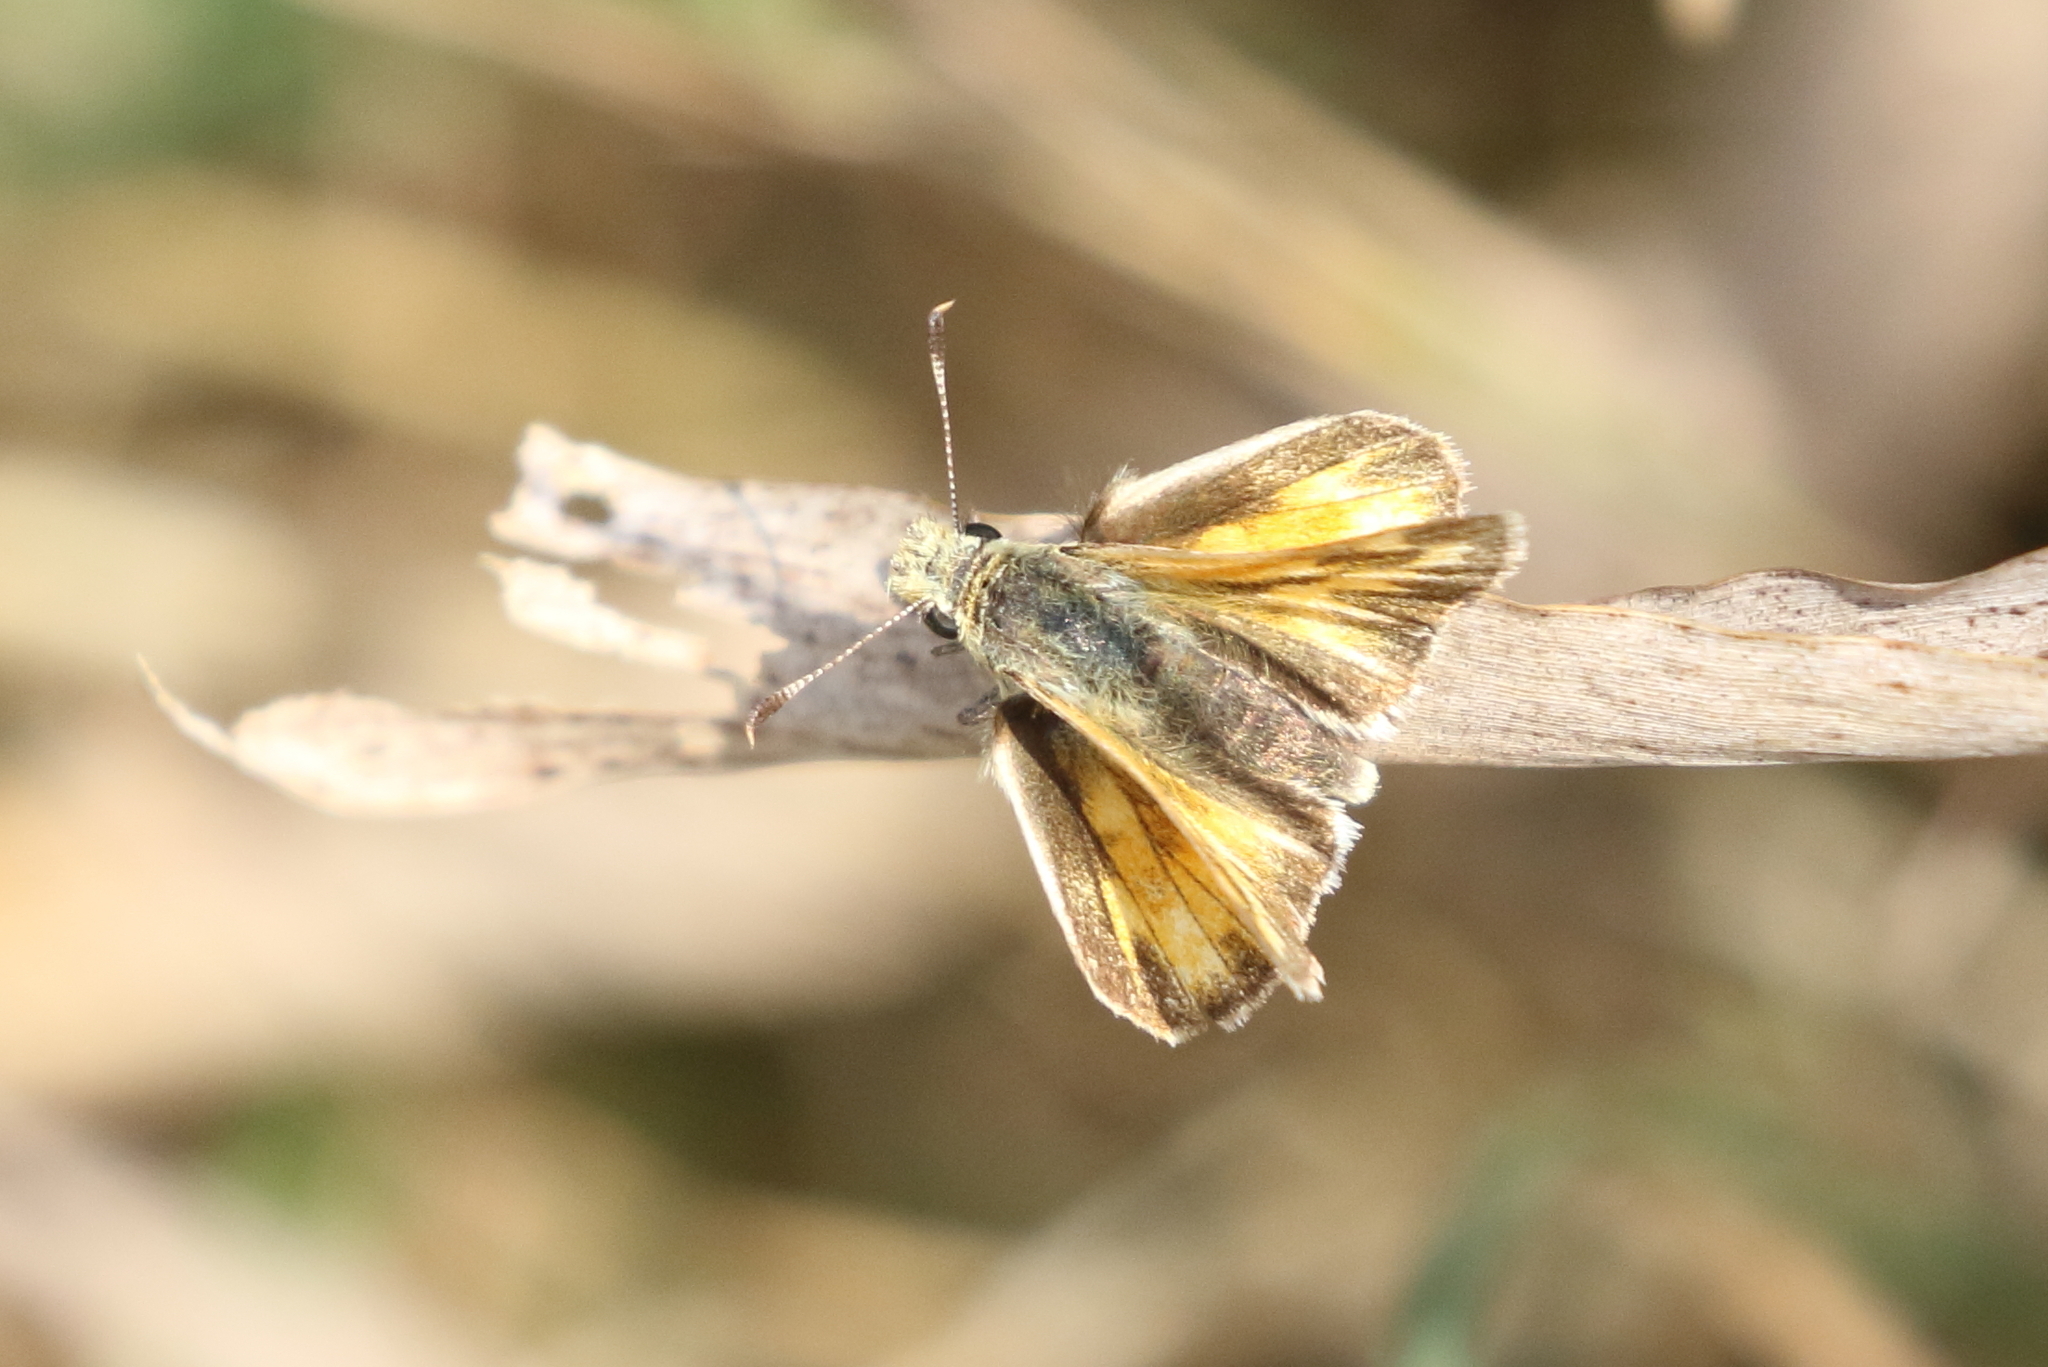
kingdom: Animalia
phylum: Arthropoda
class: Insecta
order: Lepidoptera
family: Hesperiidae
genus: Ochlodes
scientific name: Ochlodes sylvanoides
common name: Woodland skipper
